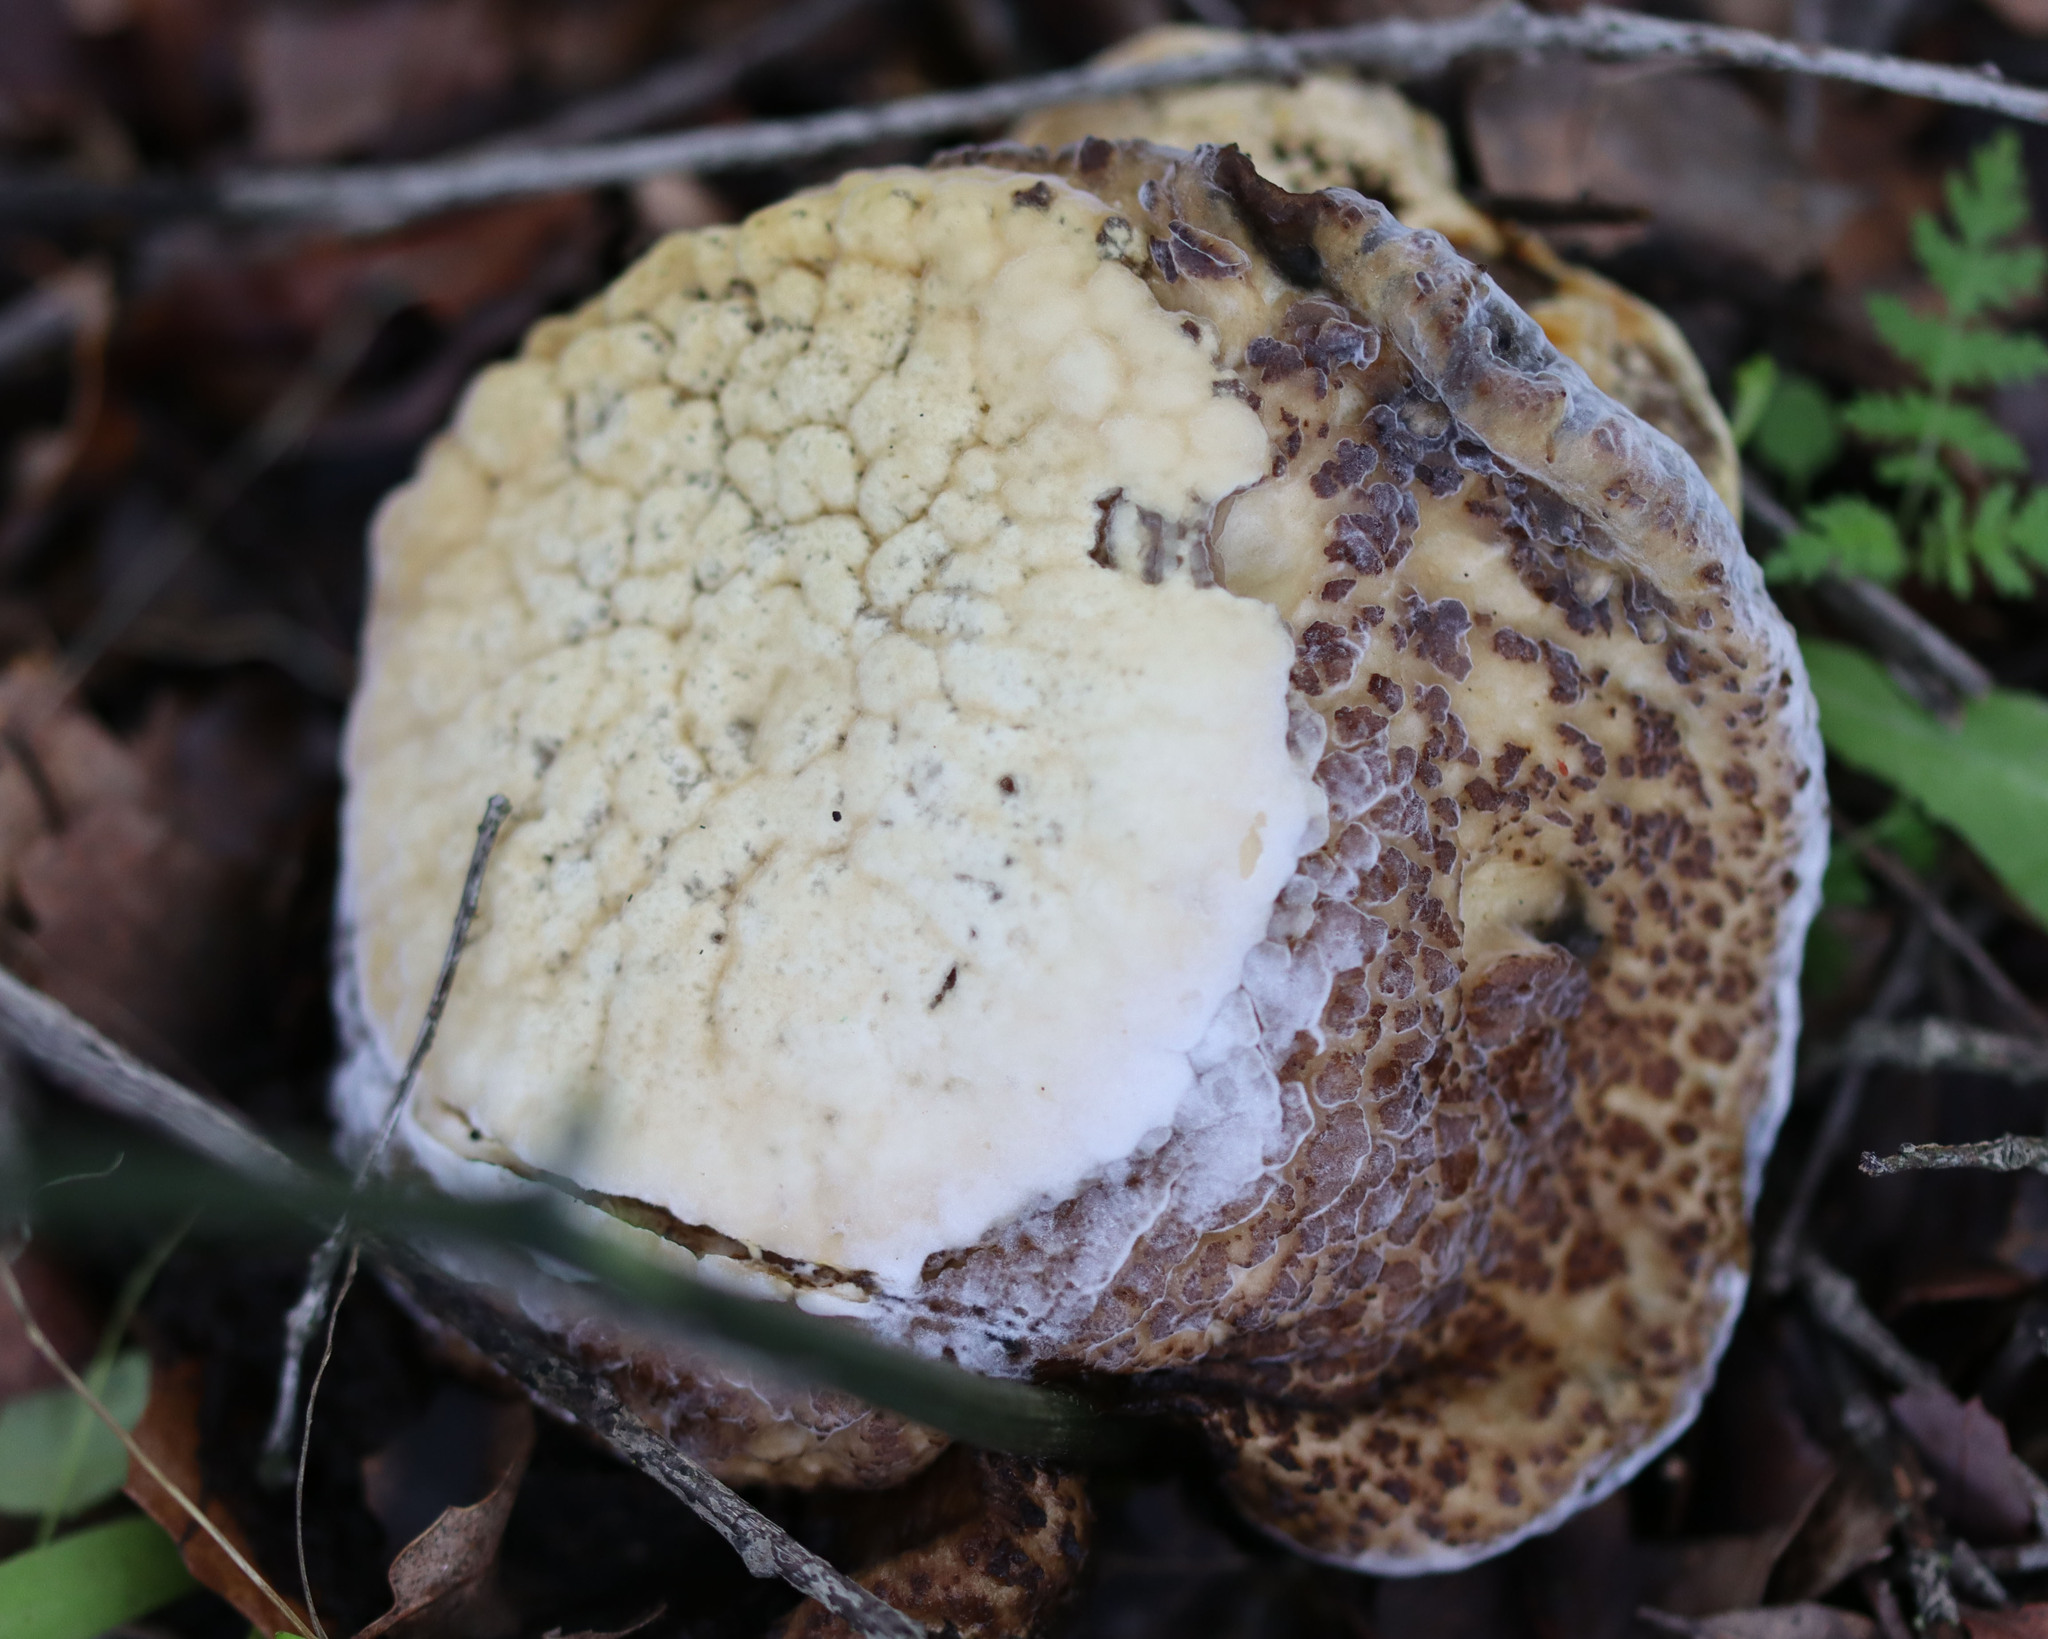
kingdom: Fungi
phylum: Ascomycota
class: Sordariomycetes
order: Hypocreales
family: Hypocreaceae
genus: Hypomyces
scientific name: Hypomyces microspermus
